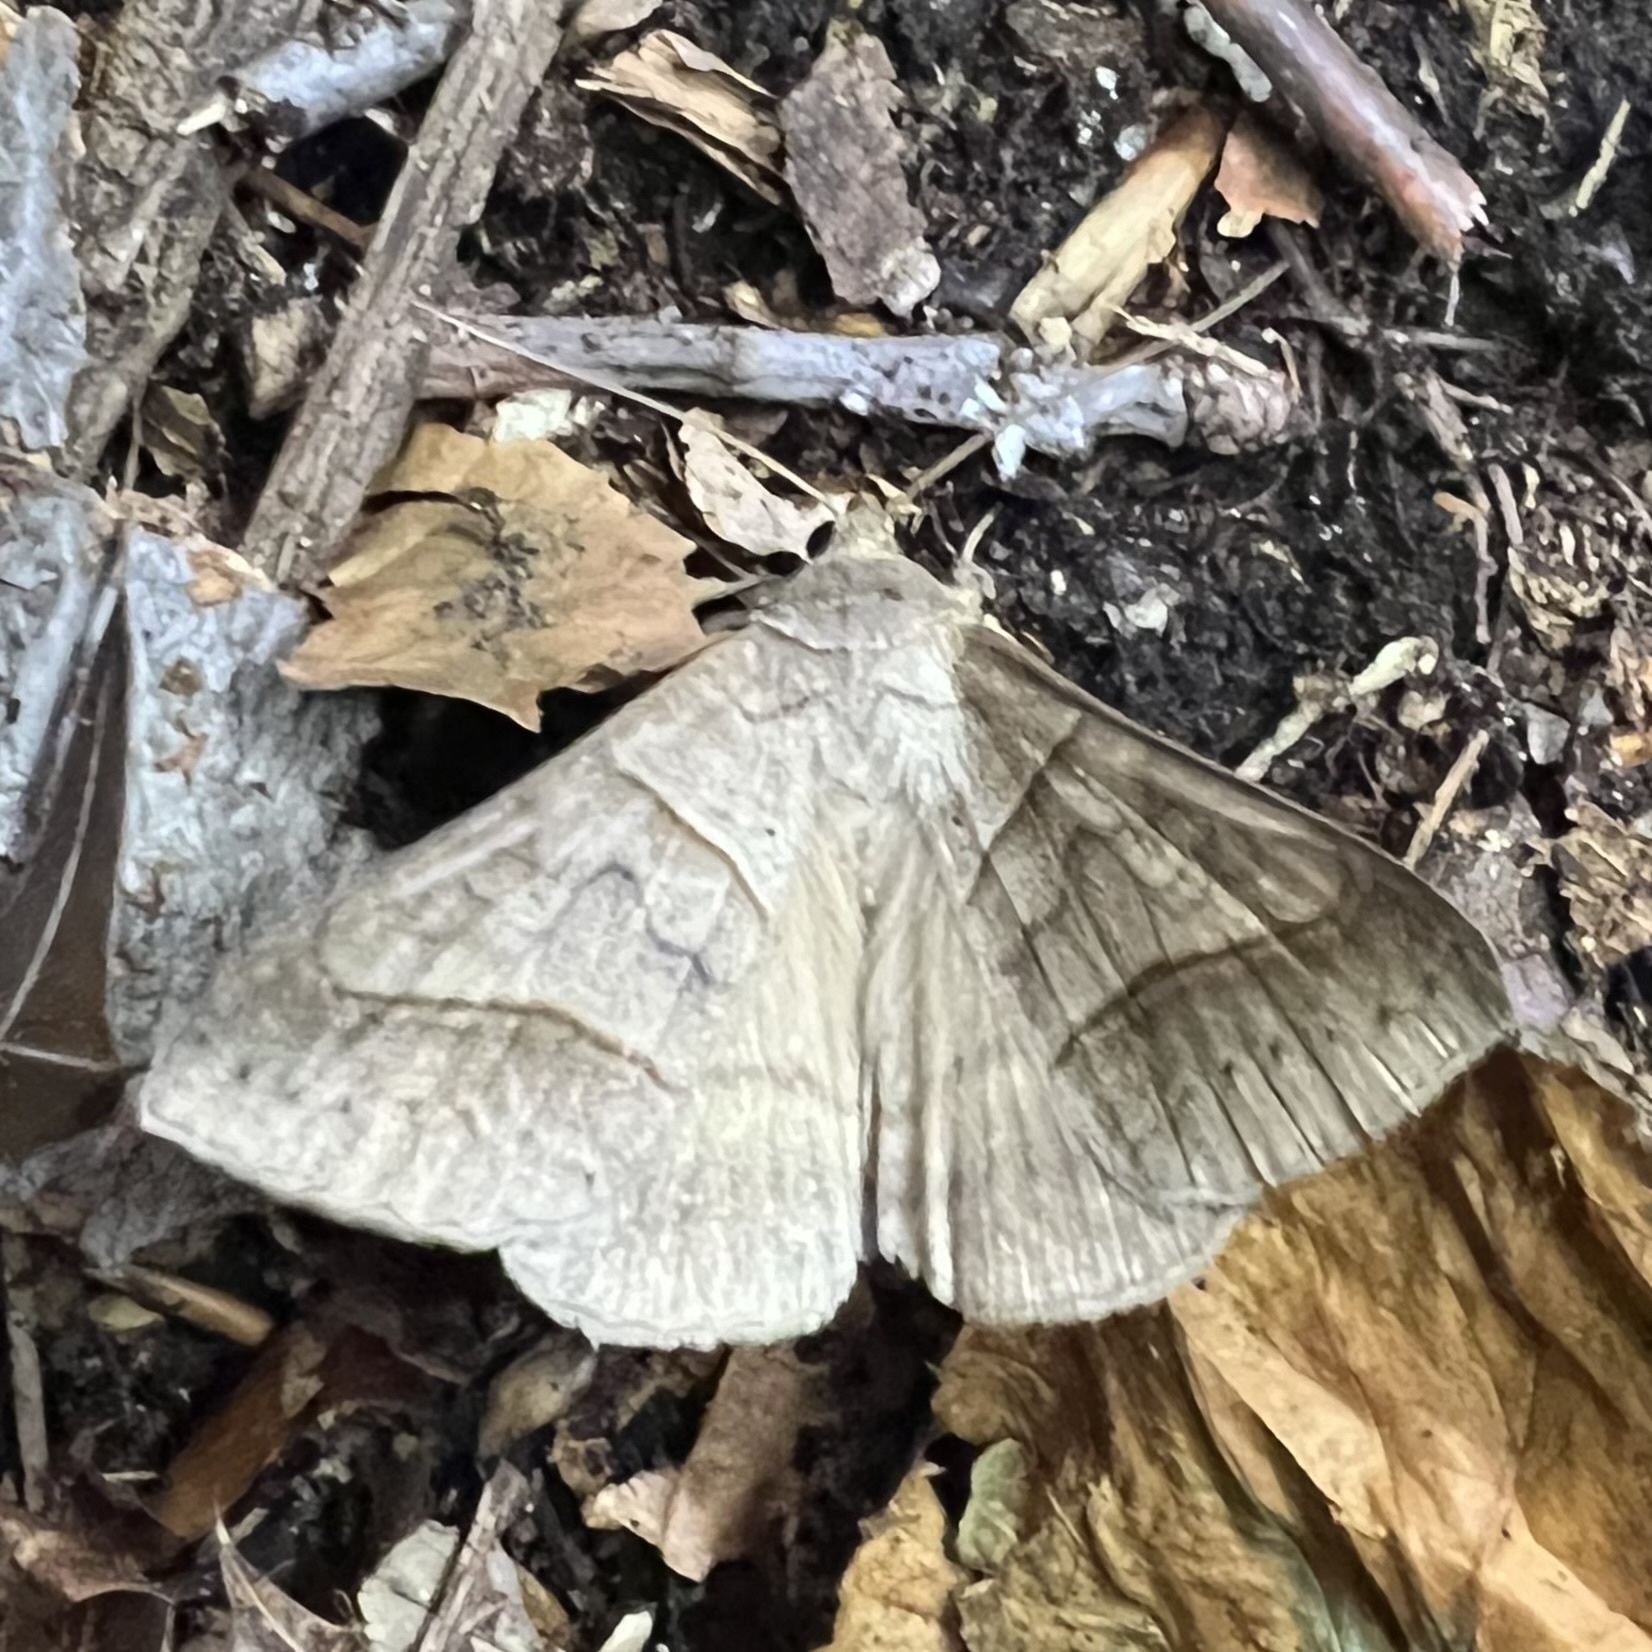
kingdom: Animalia
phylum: Arthropoda
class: Insecta
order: Lepidoptera
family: Erebidae
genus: Mocis
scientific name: Mocis texana
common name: Texas mocis moth
